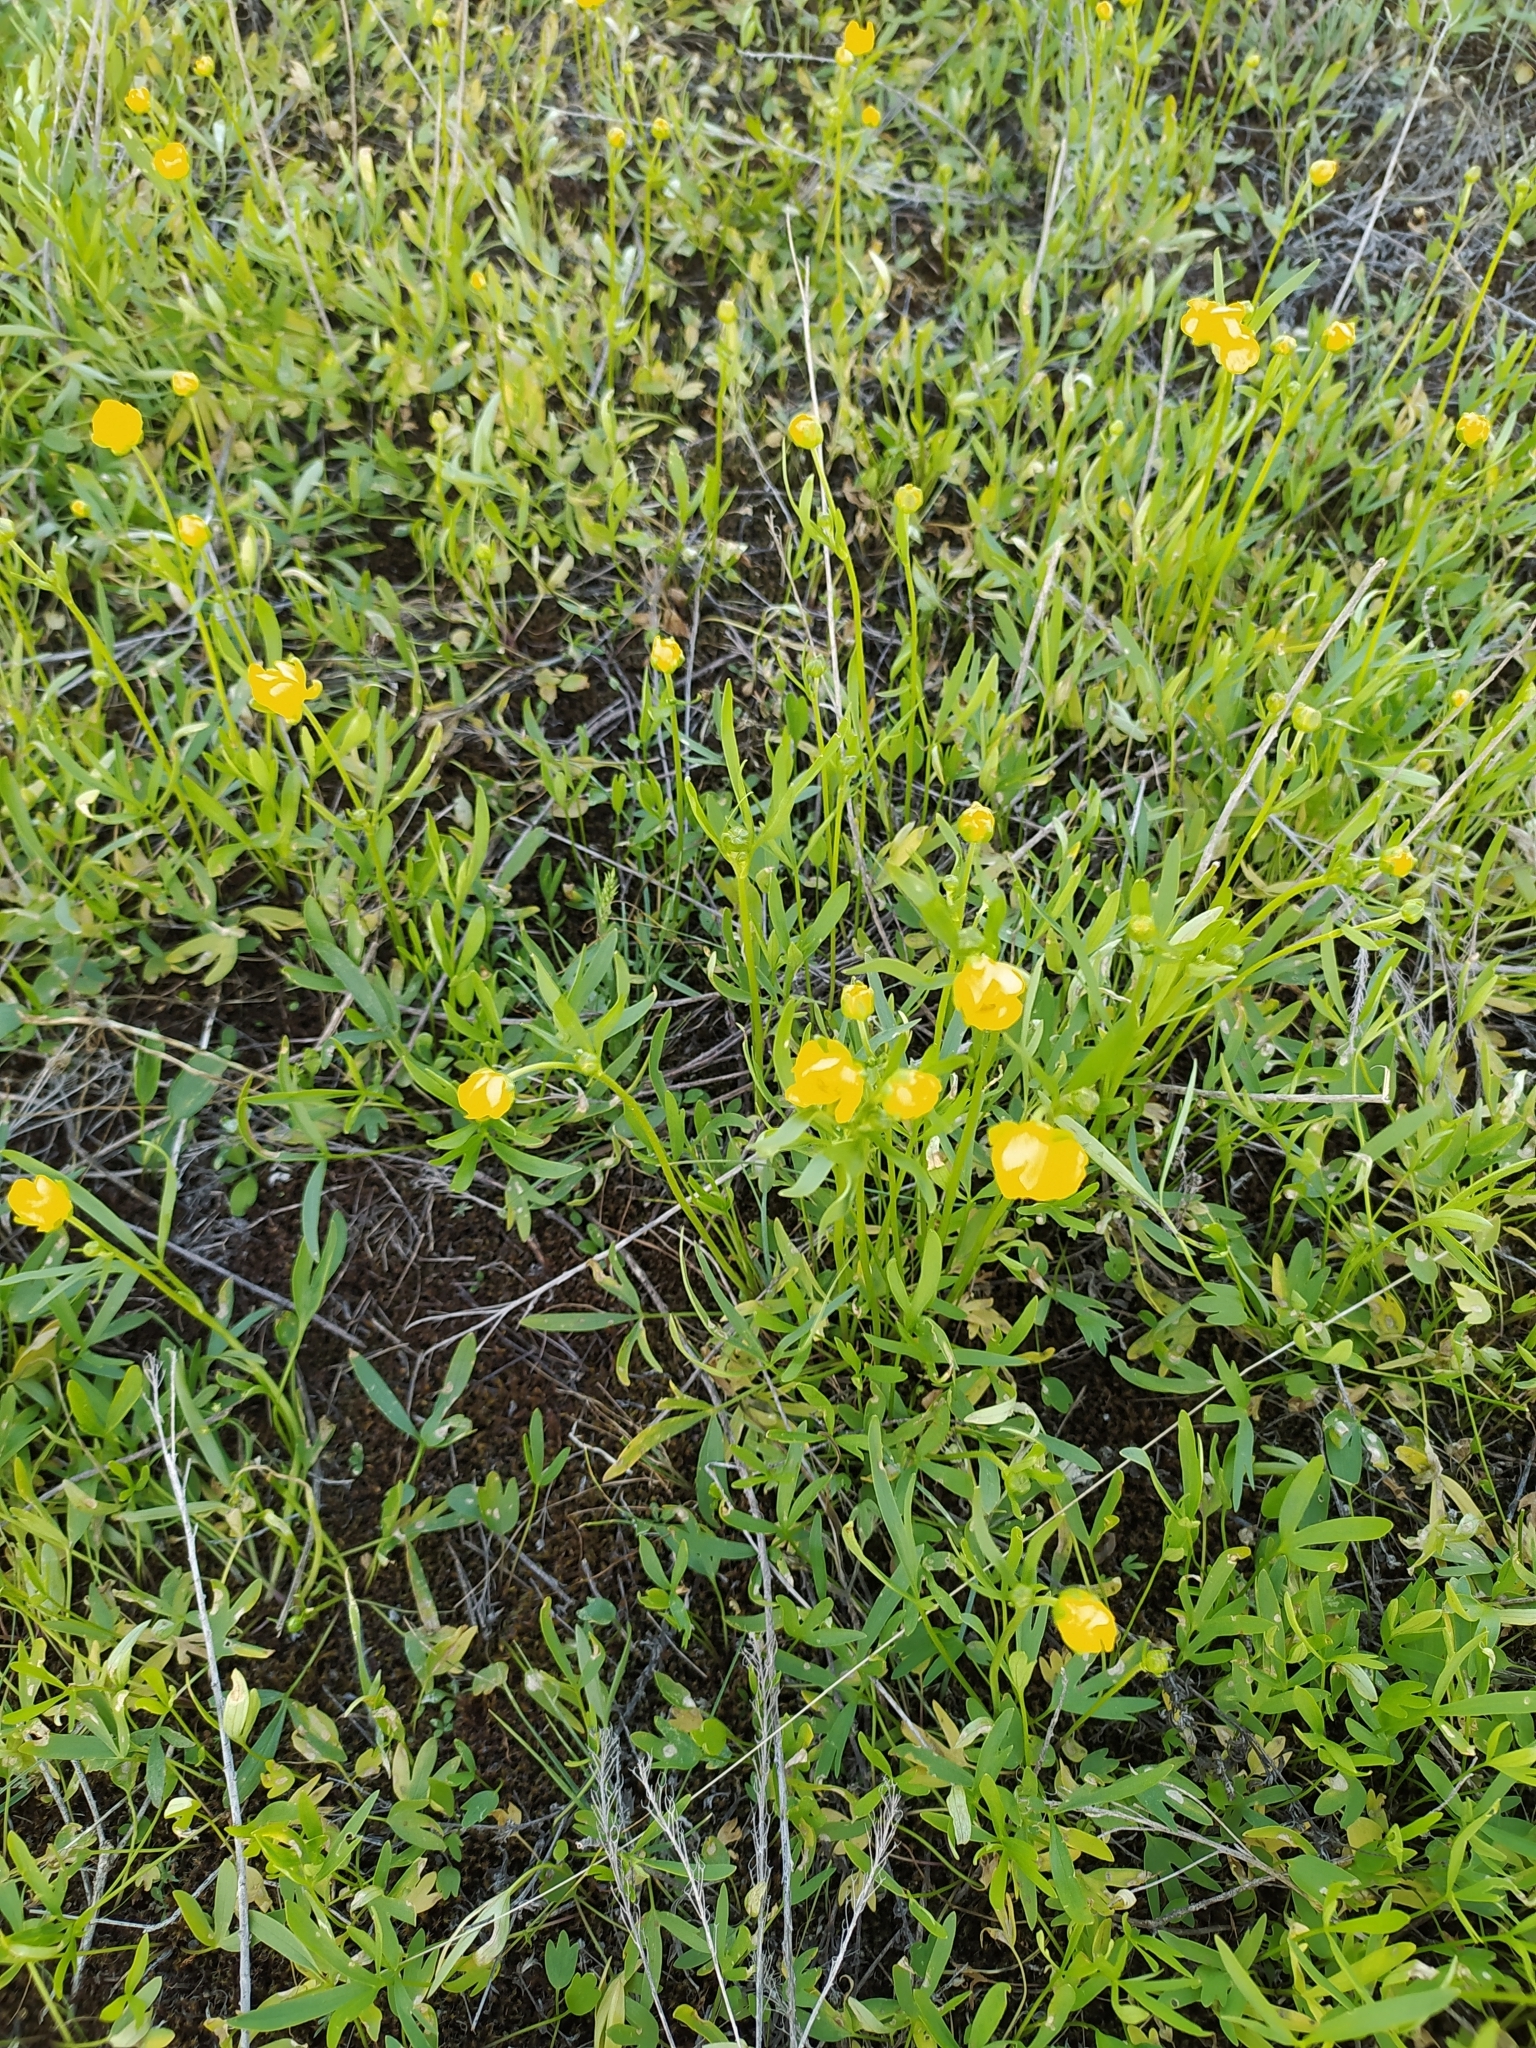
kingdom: Plantae
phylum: Tracheophyta
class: Magnoliopsida
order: Ranunculales
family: Ranunculaceae
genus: Ranunculus
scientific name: Ranunculus pedatus
